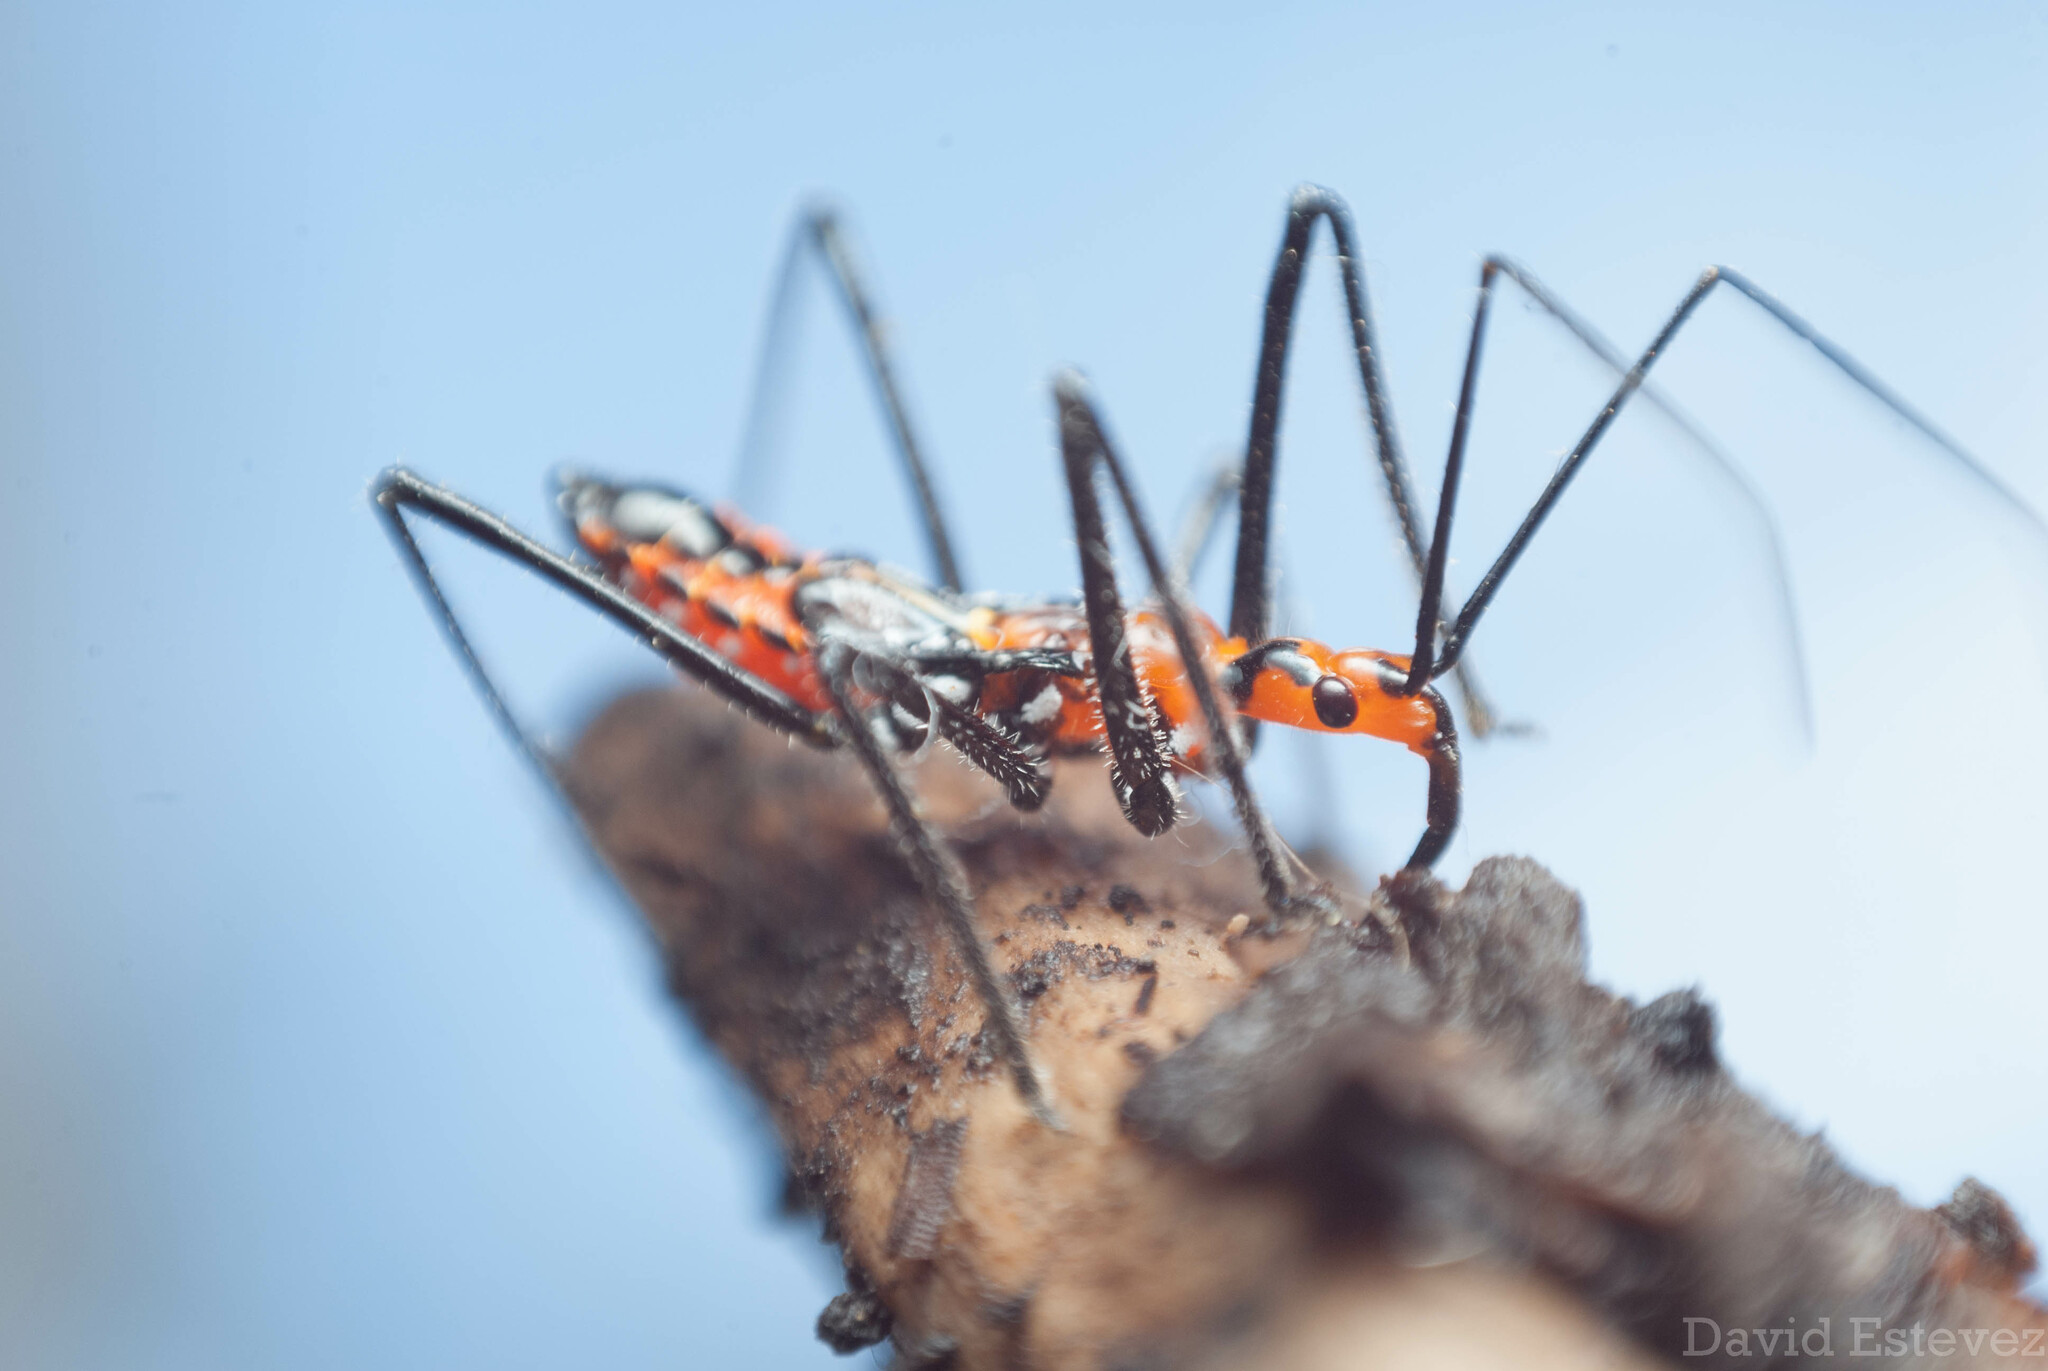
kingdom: Animalia
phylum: Arthropoda
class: Insecta
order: Hemiptera
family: Reduviidae
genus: Zelus
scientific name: Zelus longipes
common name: Milkweed assassin bug
